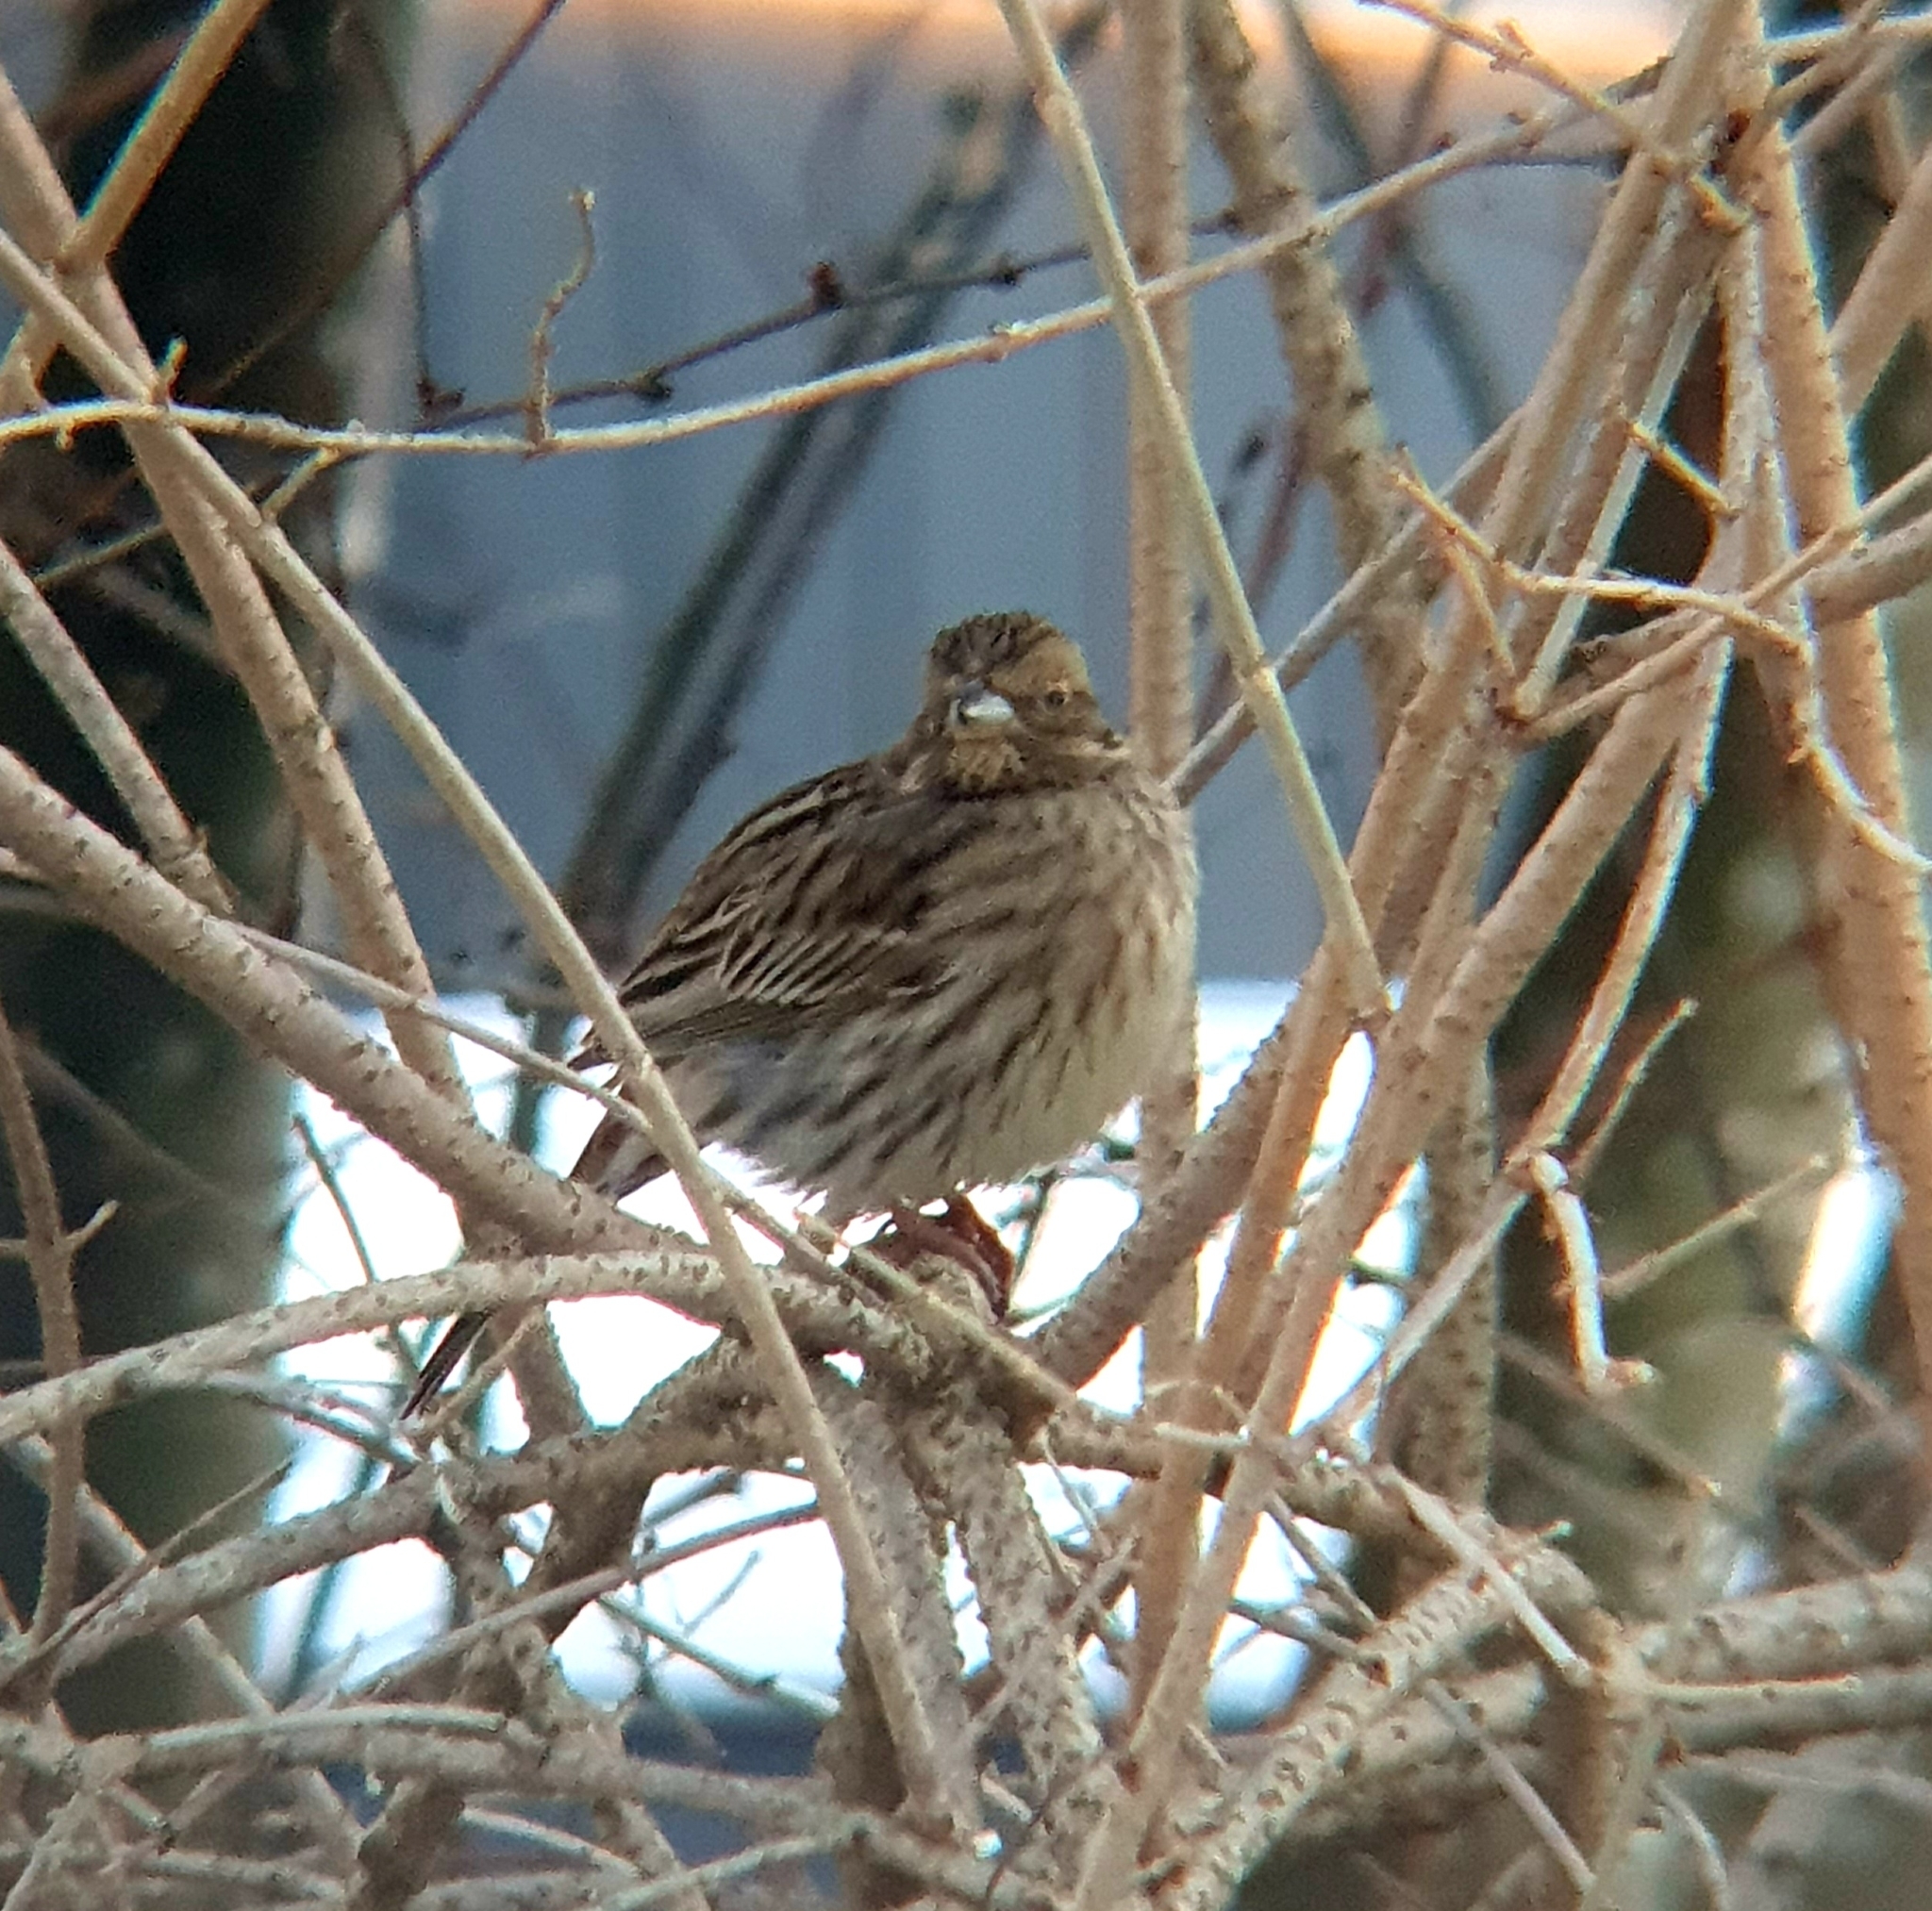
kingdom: Animalia
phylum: Chordata
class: Aves
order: Passeriformes
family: Emberizidae
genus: Emberiza
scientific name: Emberiza citrinella
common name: Yellowhammer
